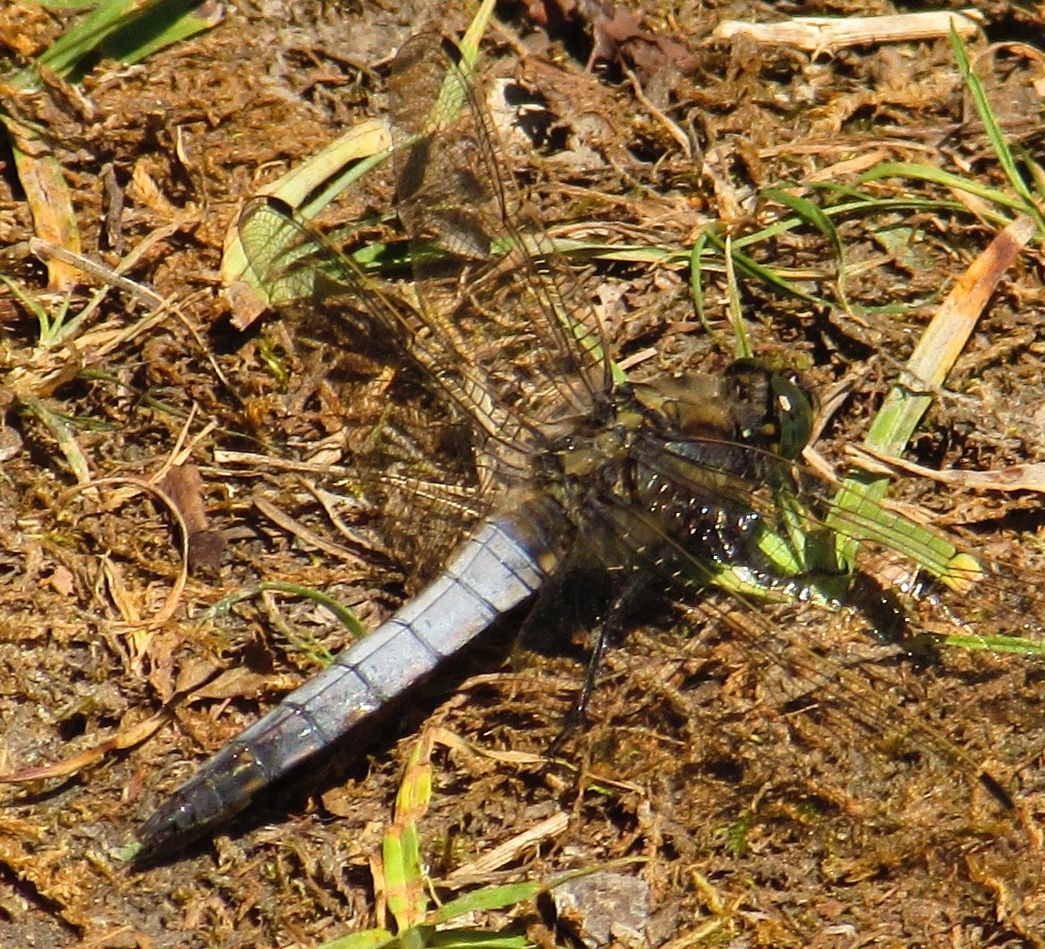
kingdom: Animalia
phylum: Arthropoda
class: Insecta
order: Odonata
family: Libellulidae
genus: Orthetrum
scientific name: Orthetrum cancellatum
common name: Black-tailed skimmer
